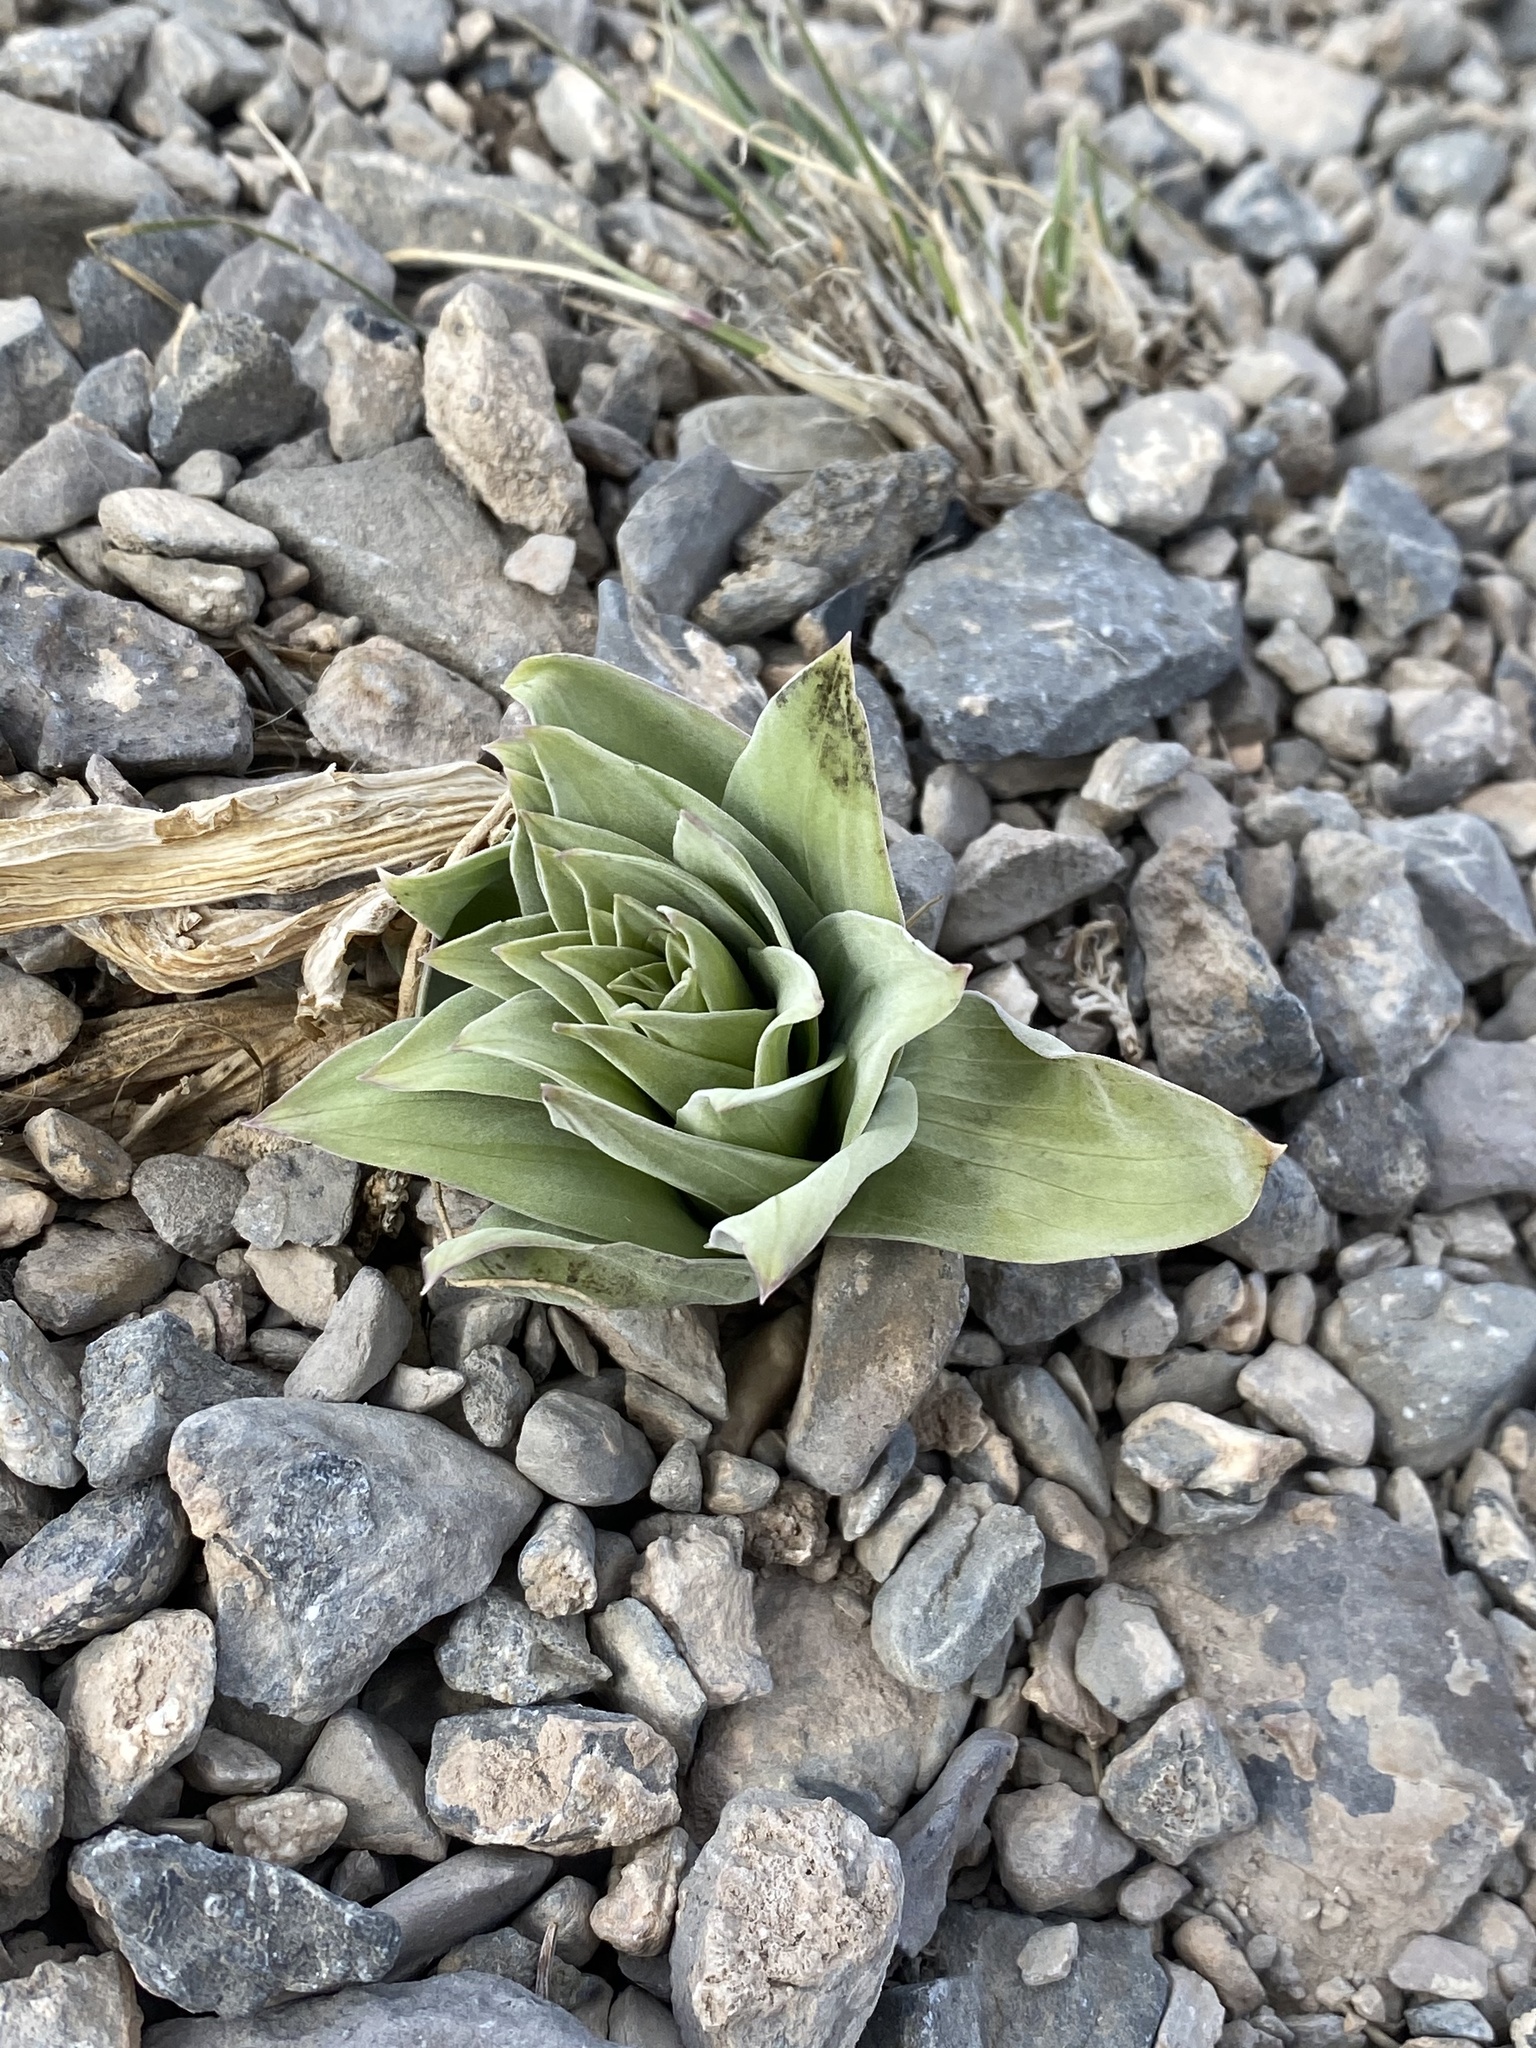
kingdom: Plantae
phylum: Tracheophyta
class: Magnoliopsida
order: Gentianales
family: Gentianaceae
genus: Frasera
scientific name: Frasera speciosa
